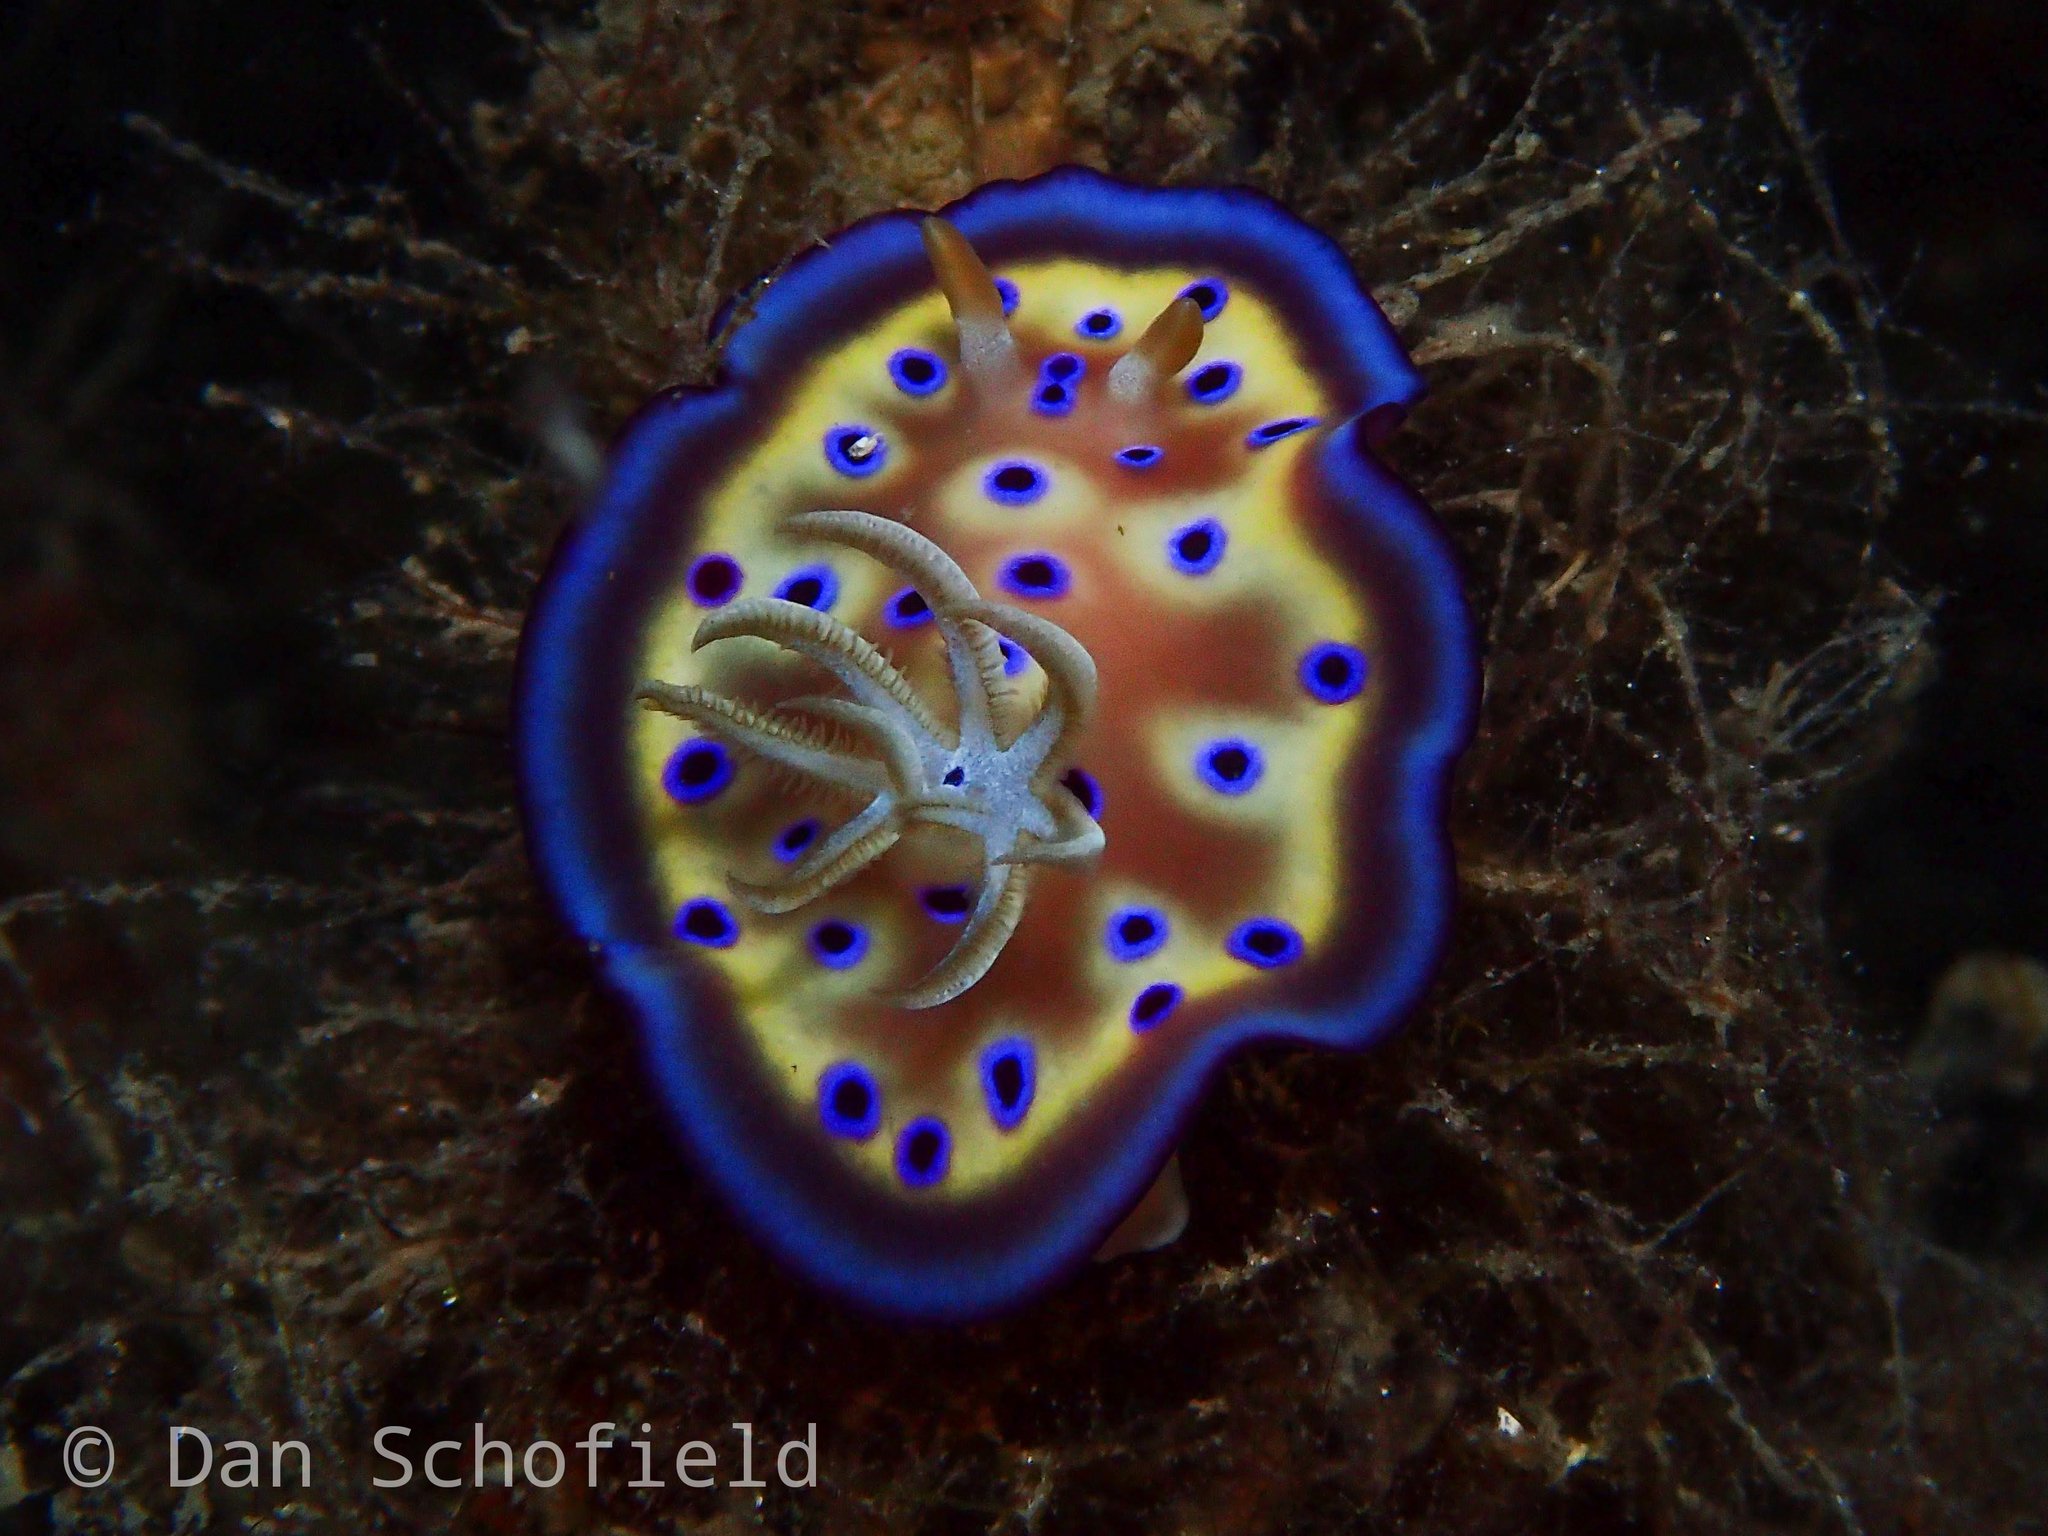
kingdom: Animalia
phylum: Mollusca
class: Gastropoda
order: Nudibranchia
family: Chromodorididae
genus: Goniobranchus
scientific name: Goniobranchus kuniei
